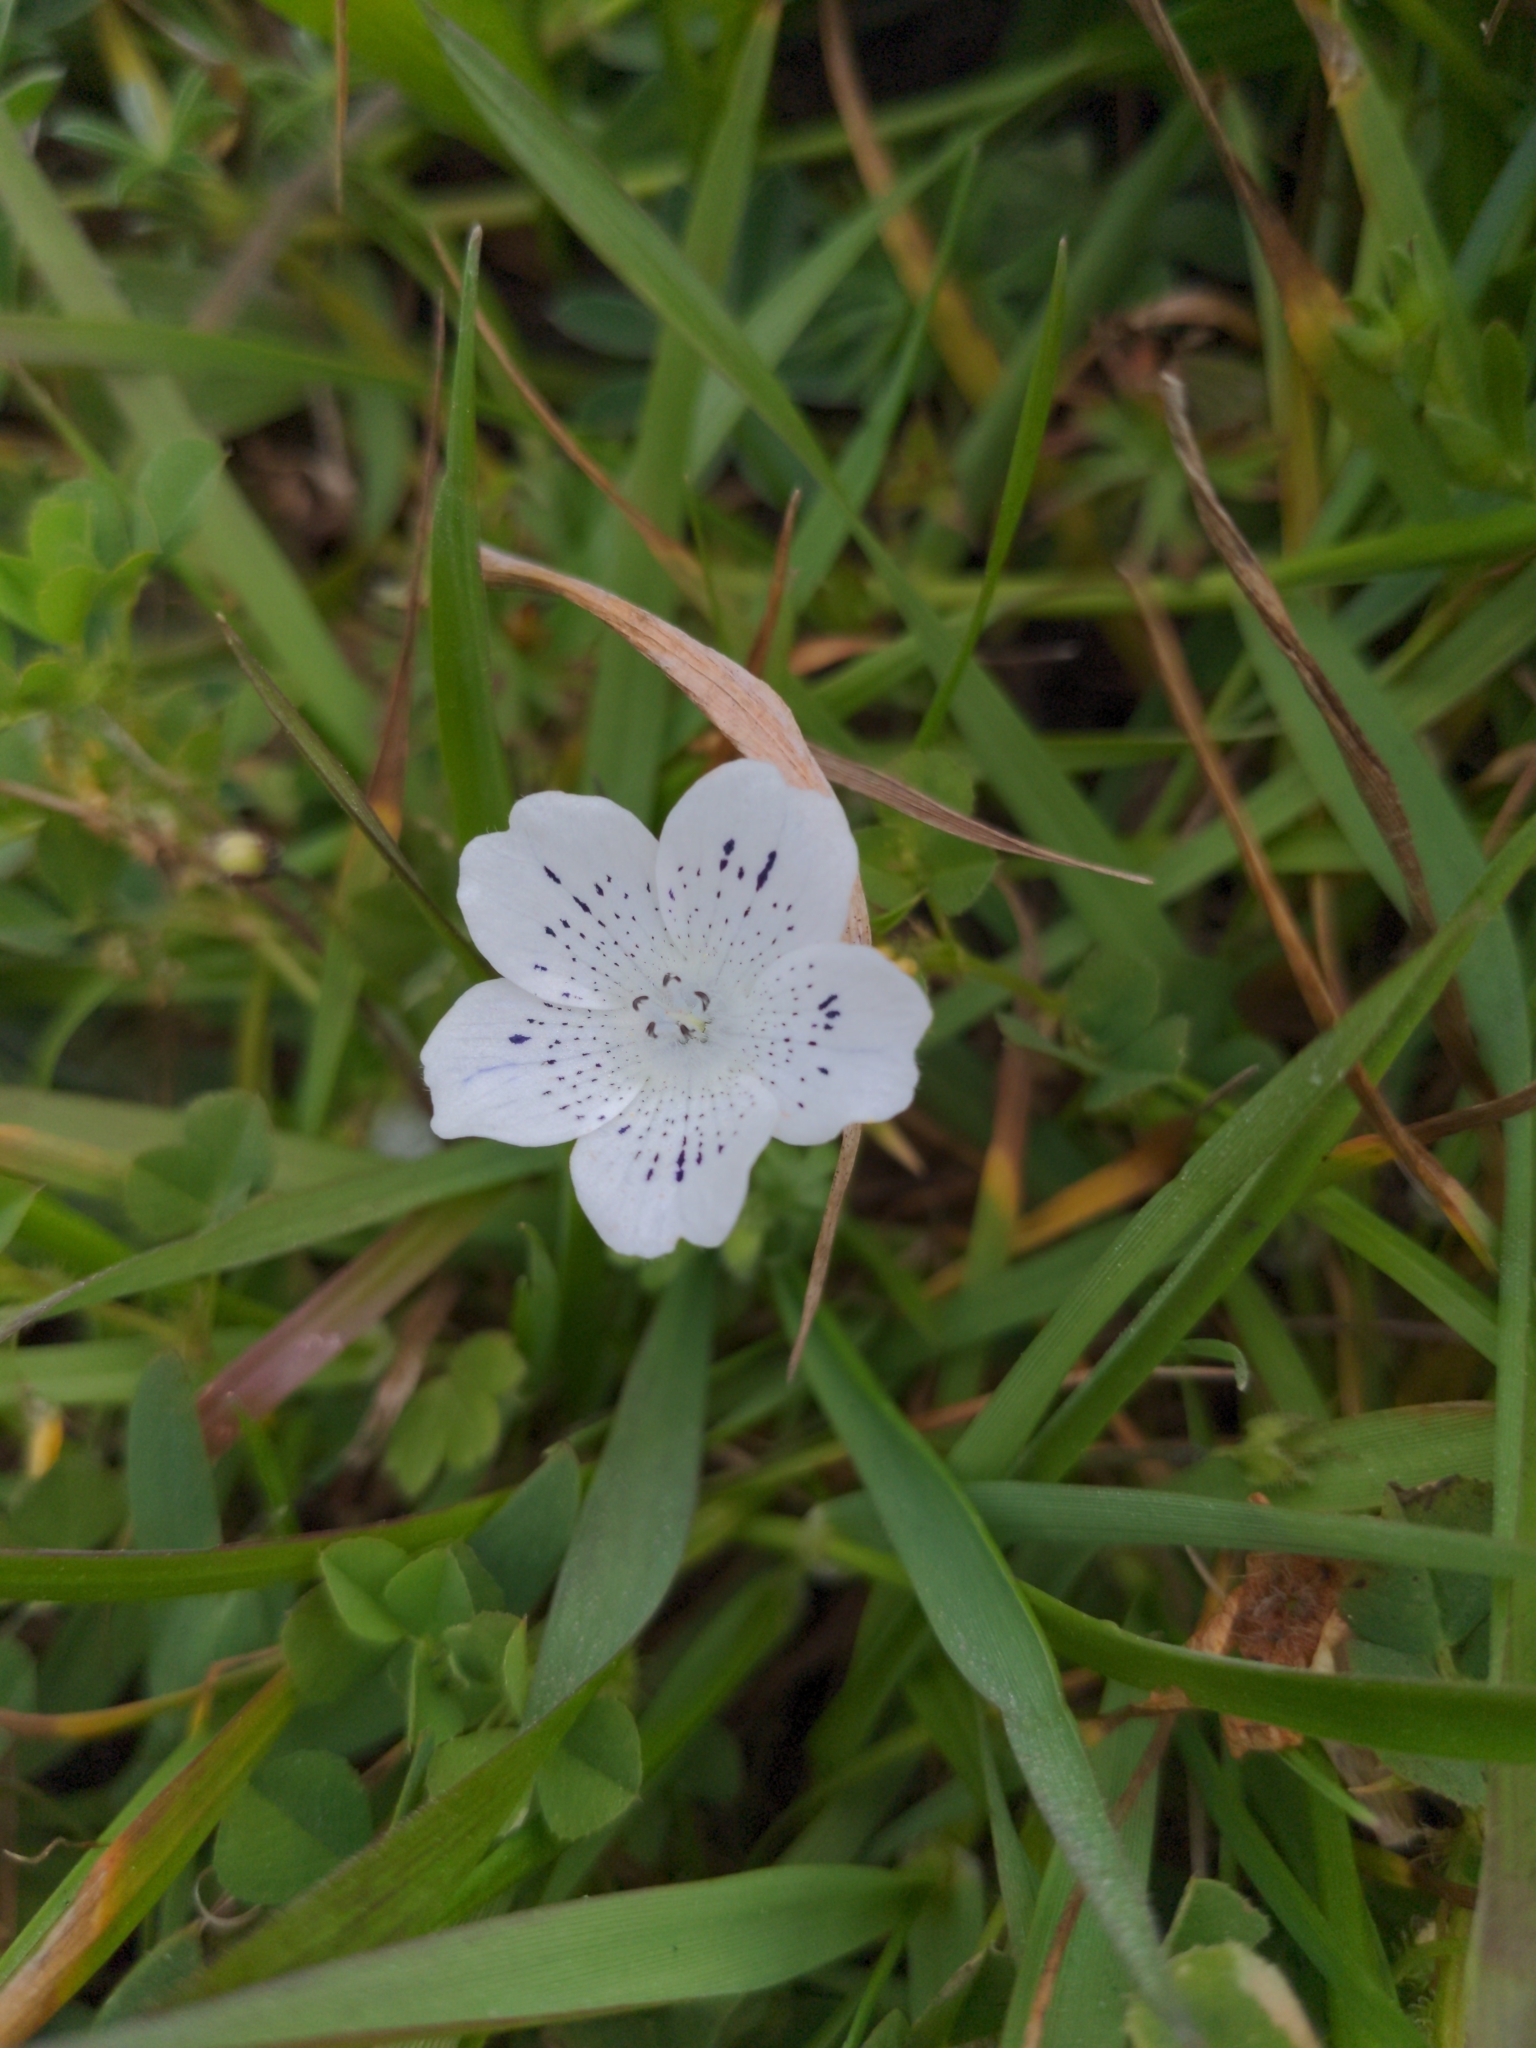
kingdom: Plantae
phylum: Tracheophyta
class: Magnoliopsida
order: Boraginales
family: Hydrophyllaceae
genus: Nemophila
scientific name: Nemophila menziesii
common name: Baby's-blue-eyes
